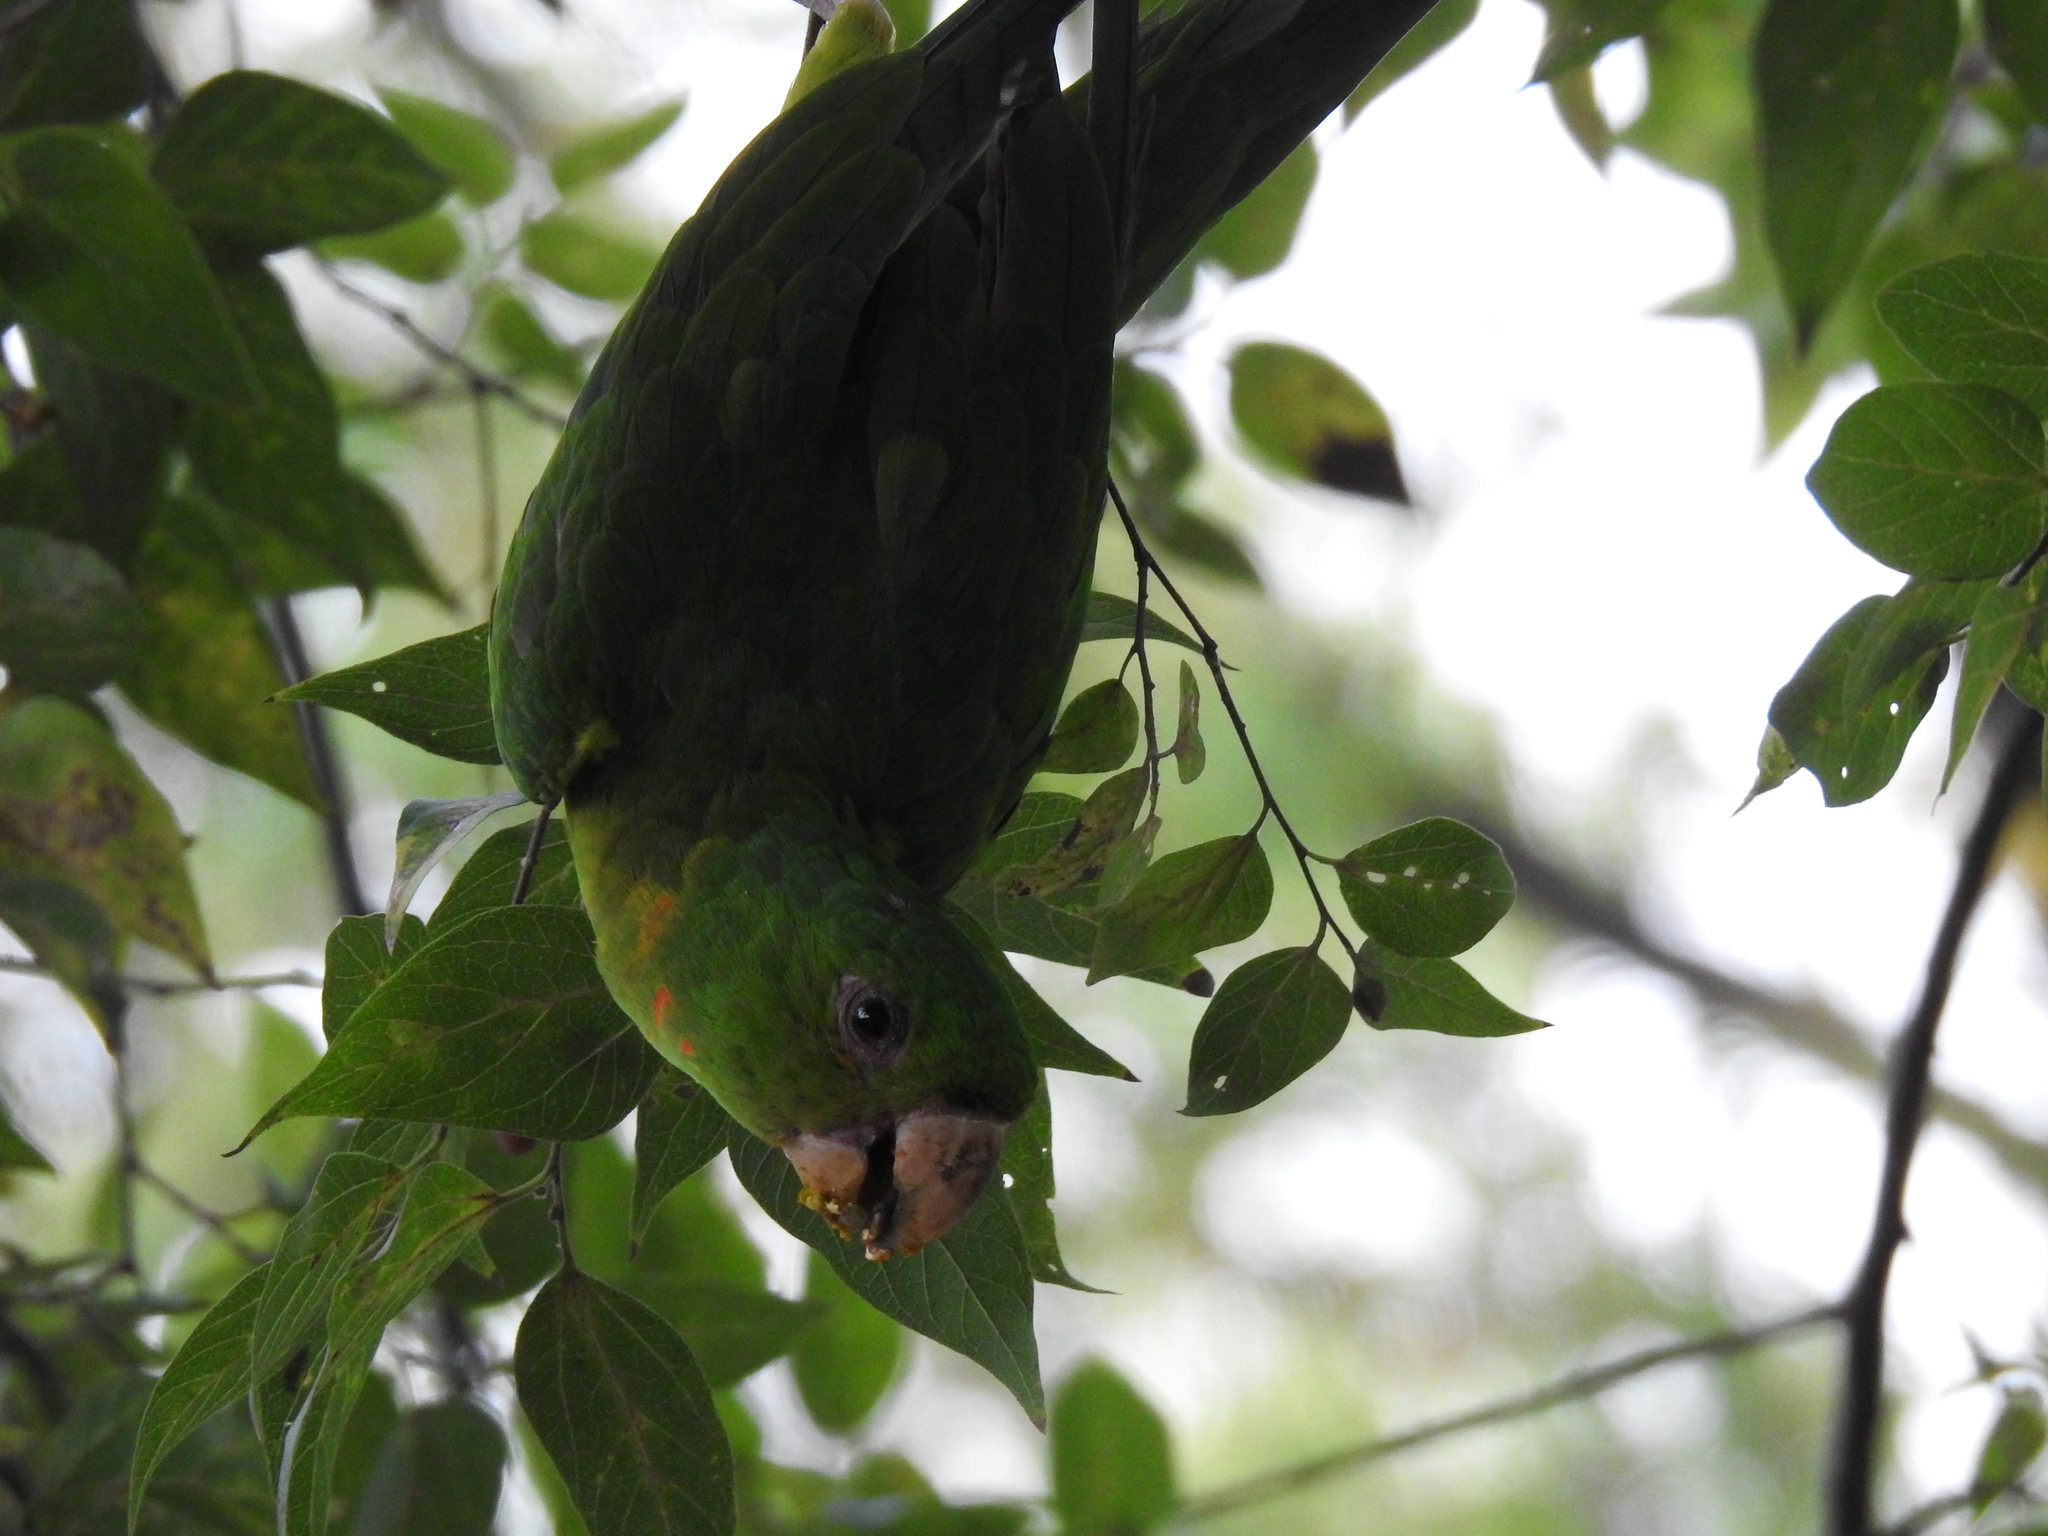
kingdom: Animalia
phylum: Chordata
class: Aves
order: Psittaciformes
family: Psittacidae
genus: Aratinga
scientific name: Aratinga holochlora
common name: Green parakeet
